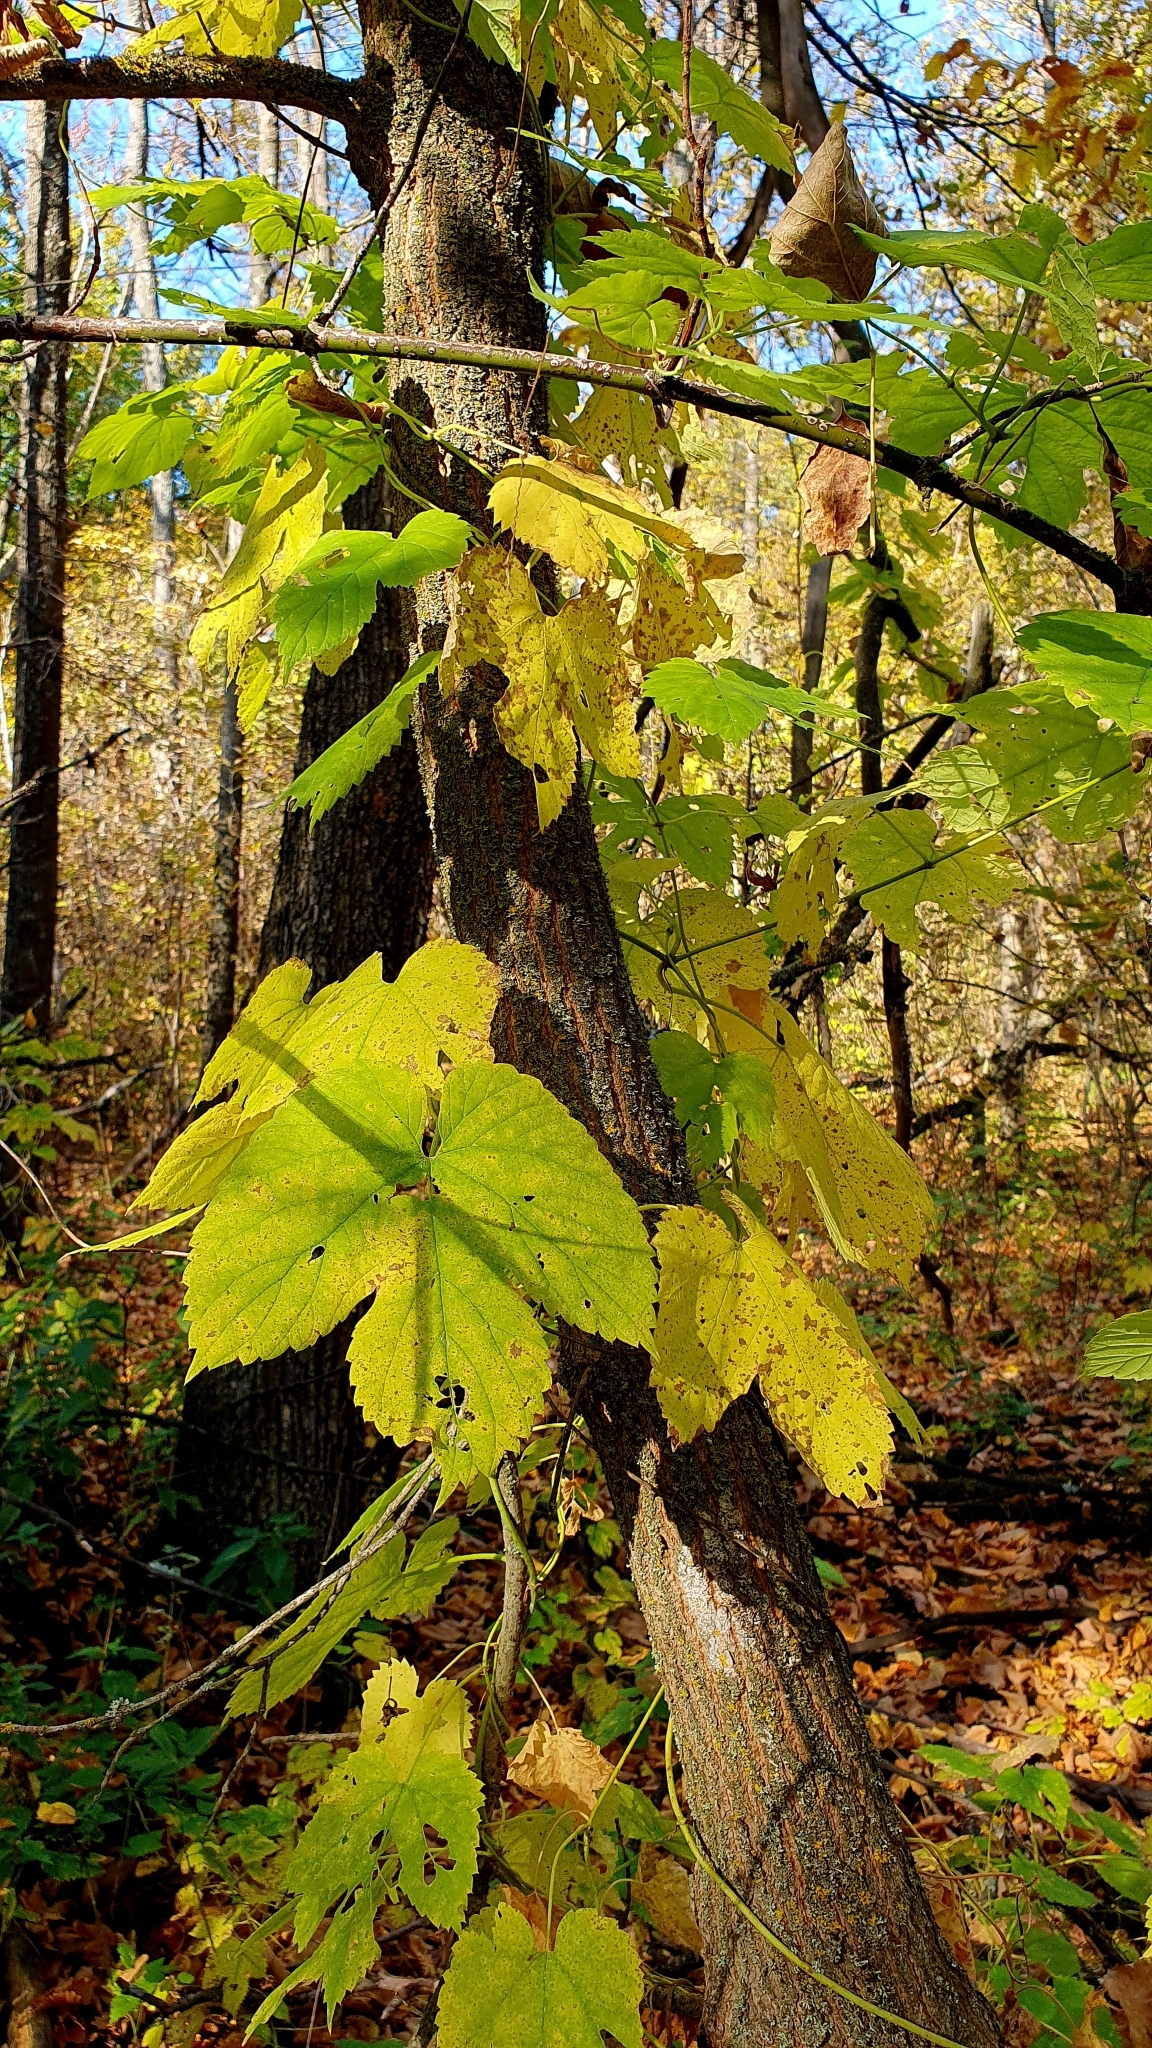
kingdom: Plantae
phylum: Tracheophyta
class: Magnoliopsida
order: Rosales
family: Cannabaceae
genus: Humulus
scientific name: Humulus lupulus
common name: Hop
